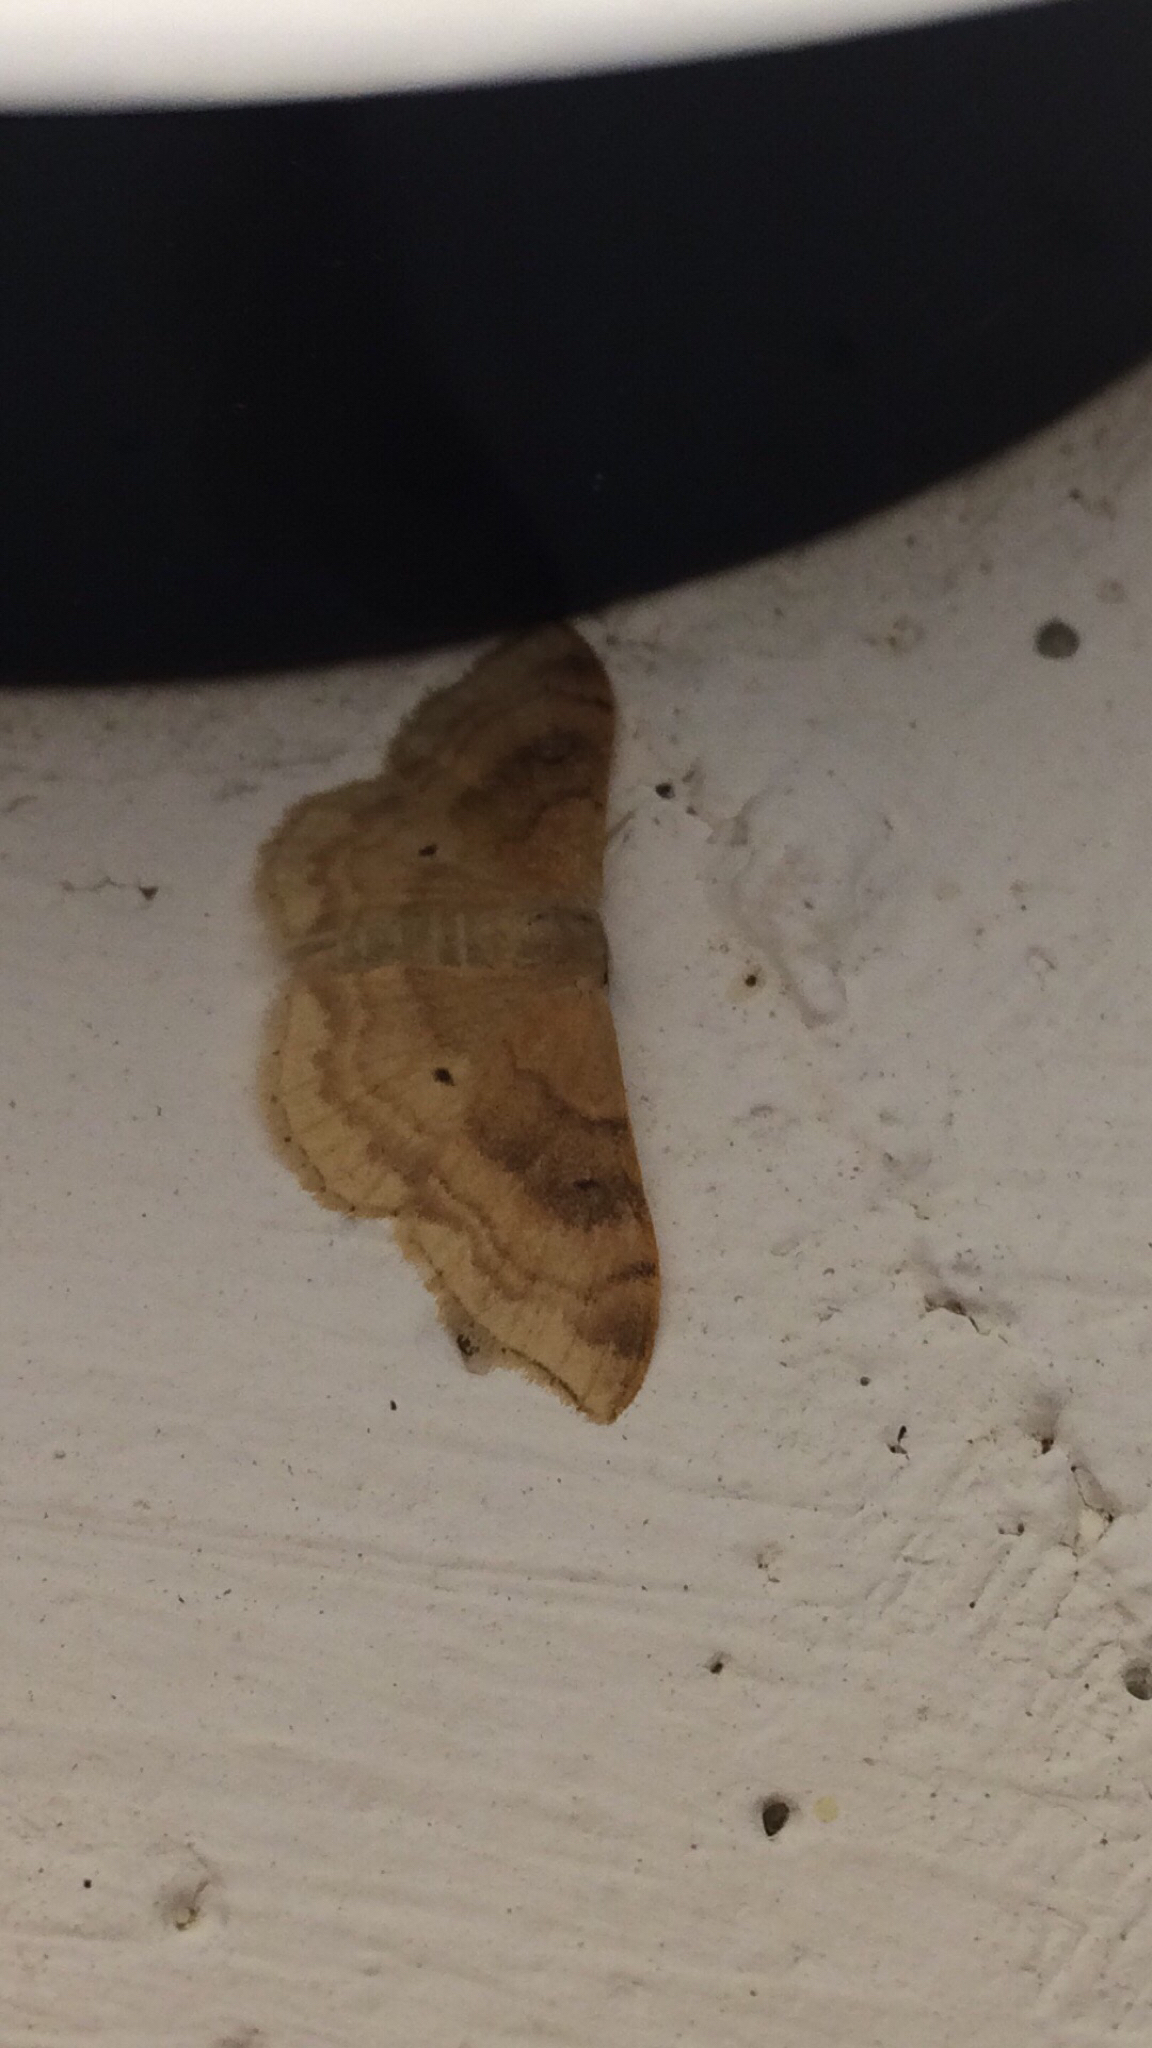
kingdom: Animalia
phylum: Arthropoda
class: Insecta
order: Lepidoptera
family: Geometridae
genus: Idaea
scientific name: Idaea degeneraria
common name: Portland ribbon wave
